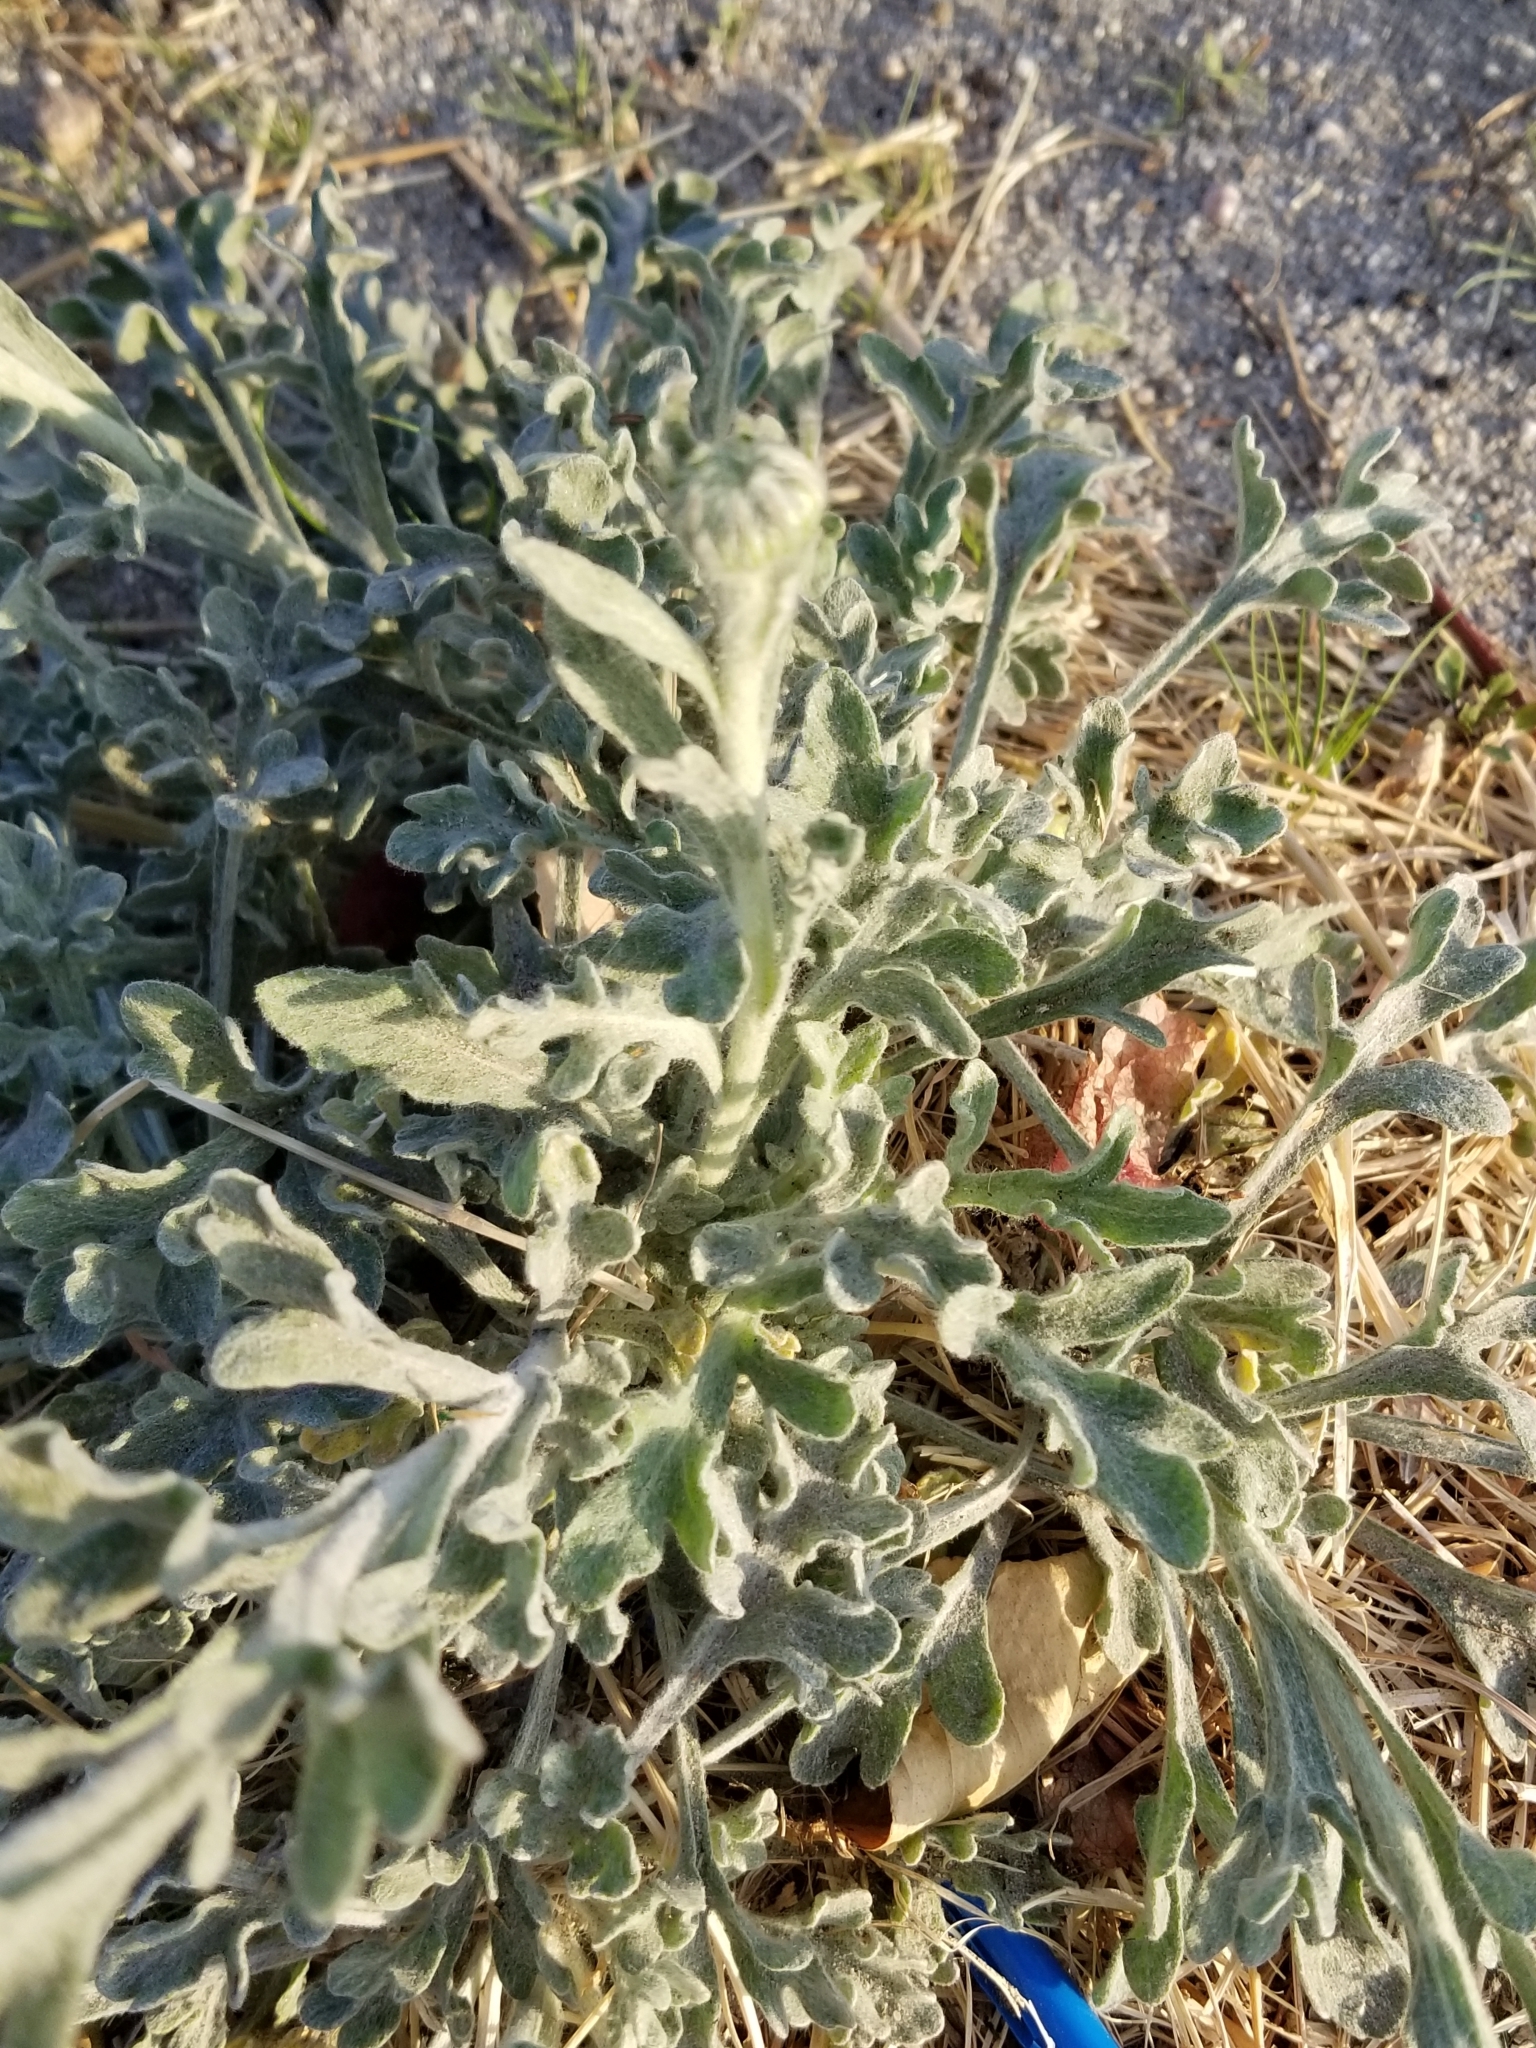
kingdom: Plantae
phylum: Tracheophyta
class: Magnoliopsida
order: Asterales
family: Asteraceae
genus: Baileya
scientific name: Baileya multiradiata
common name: Desert-marigold
